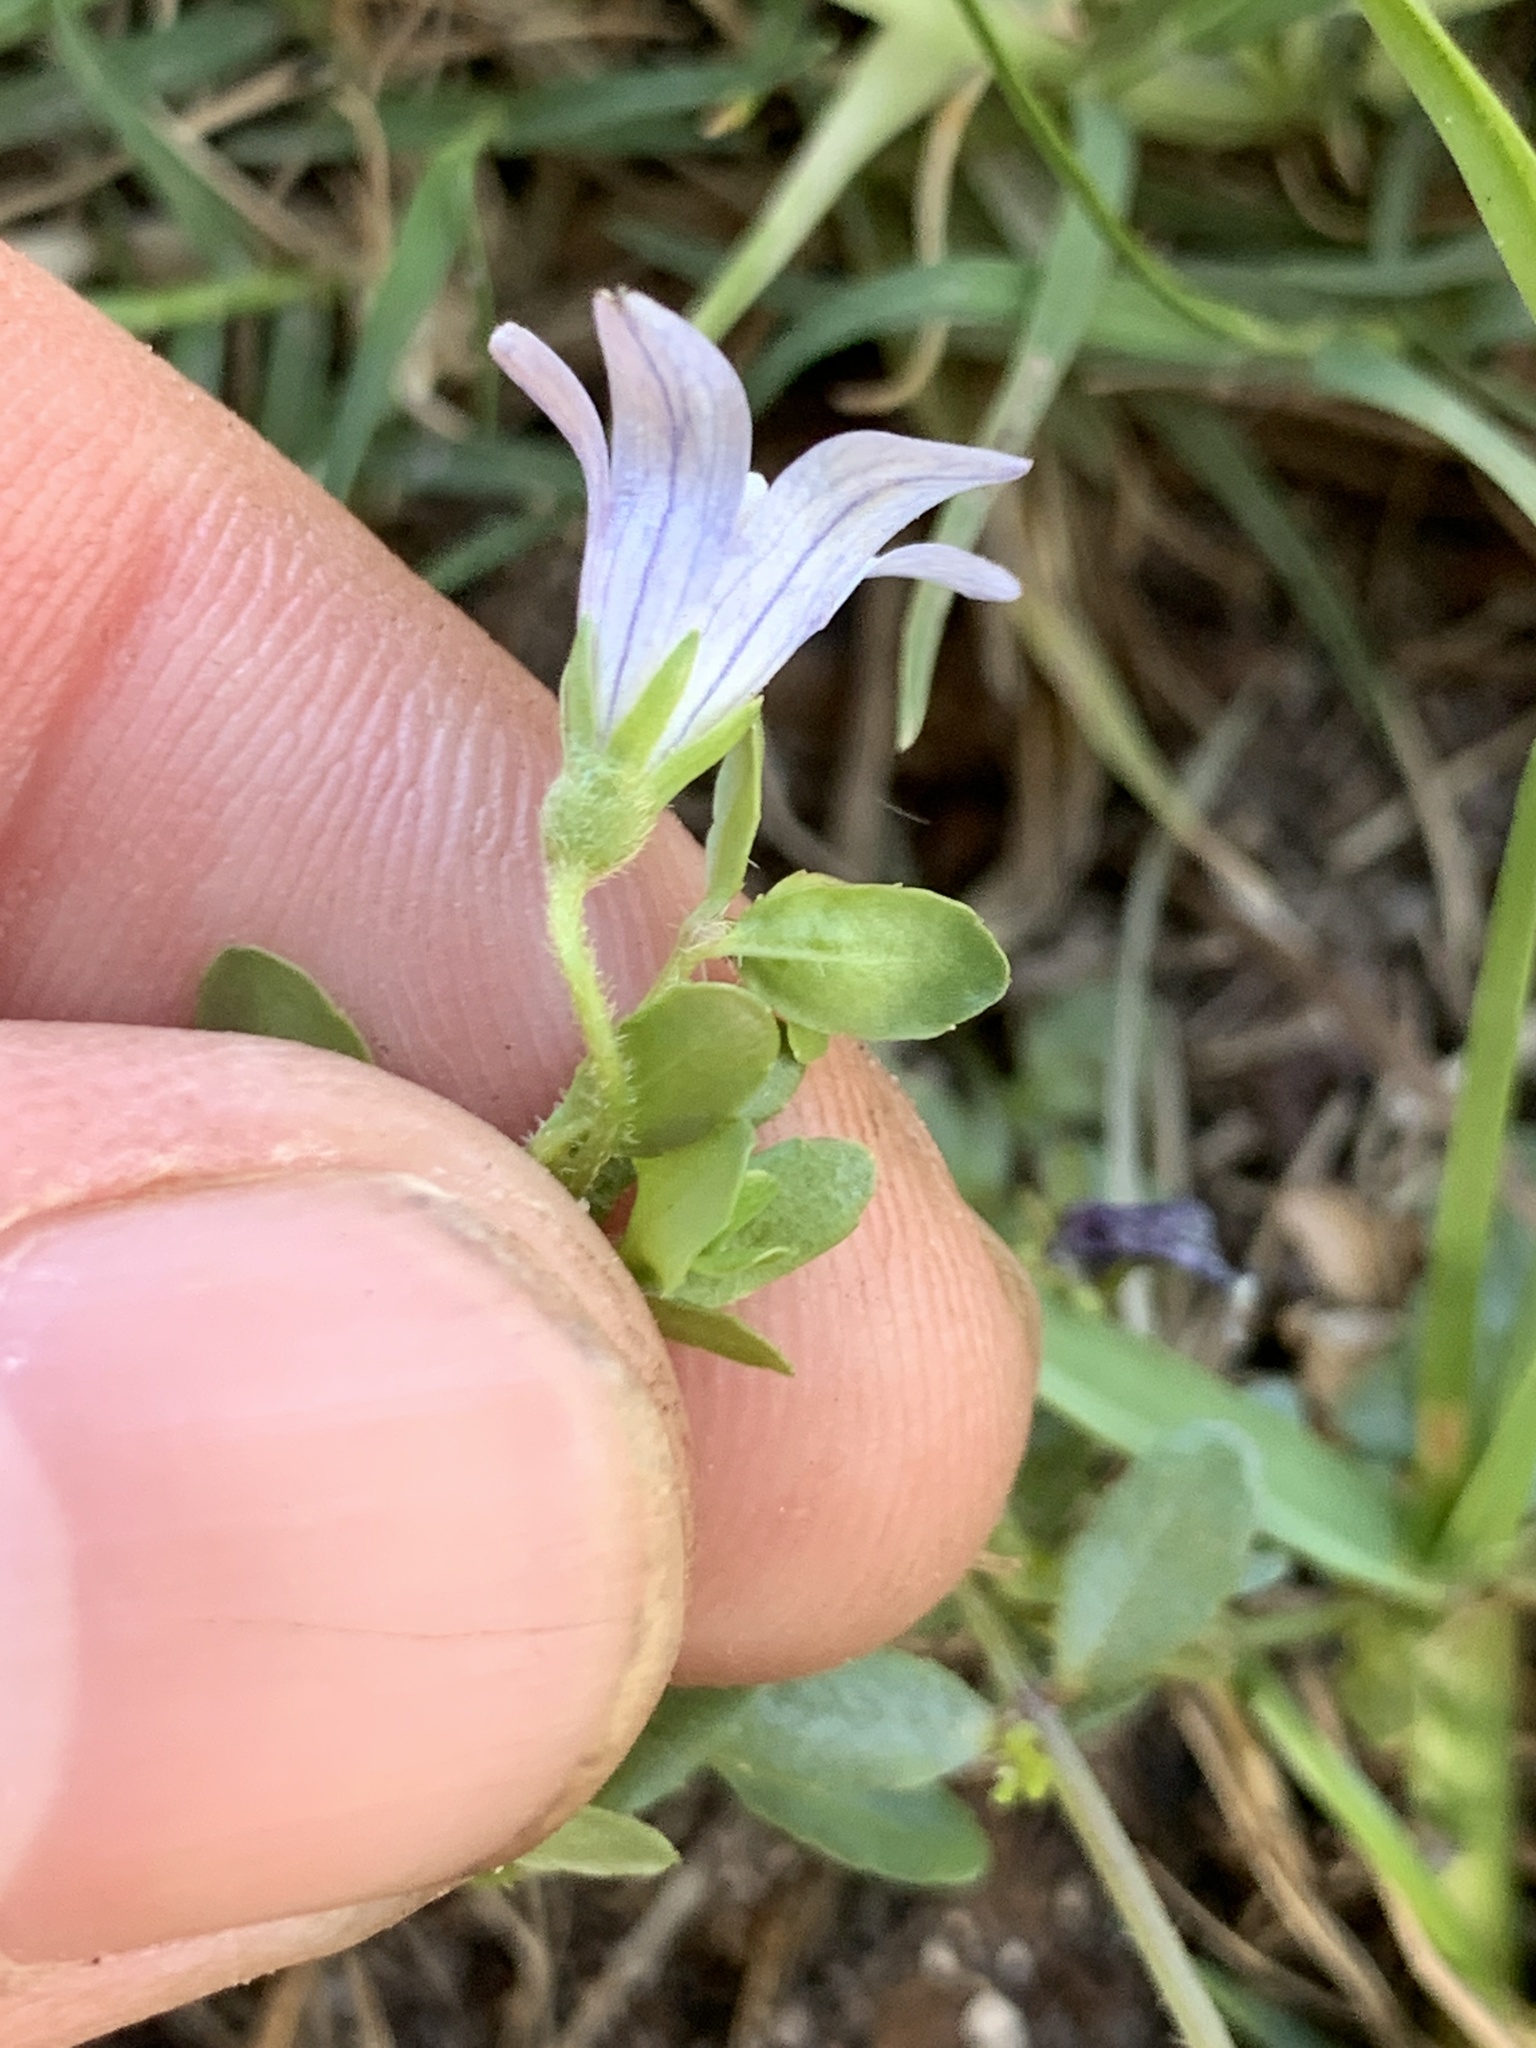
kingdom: Plantae
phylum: Tracheophyta
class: Magnoliopsida
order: Asterales
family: Campanulaceae
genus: Wahlenbergia
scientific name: Wahlenbergia procumbens
